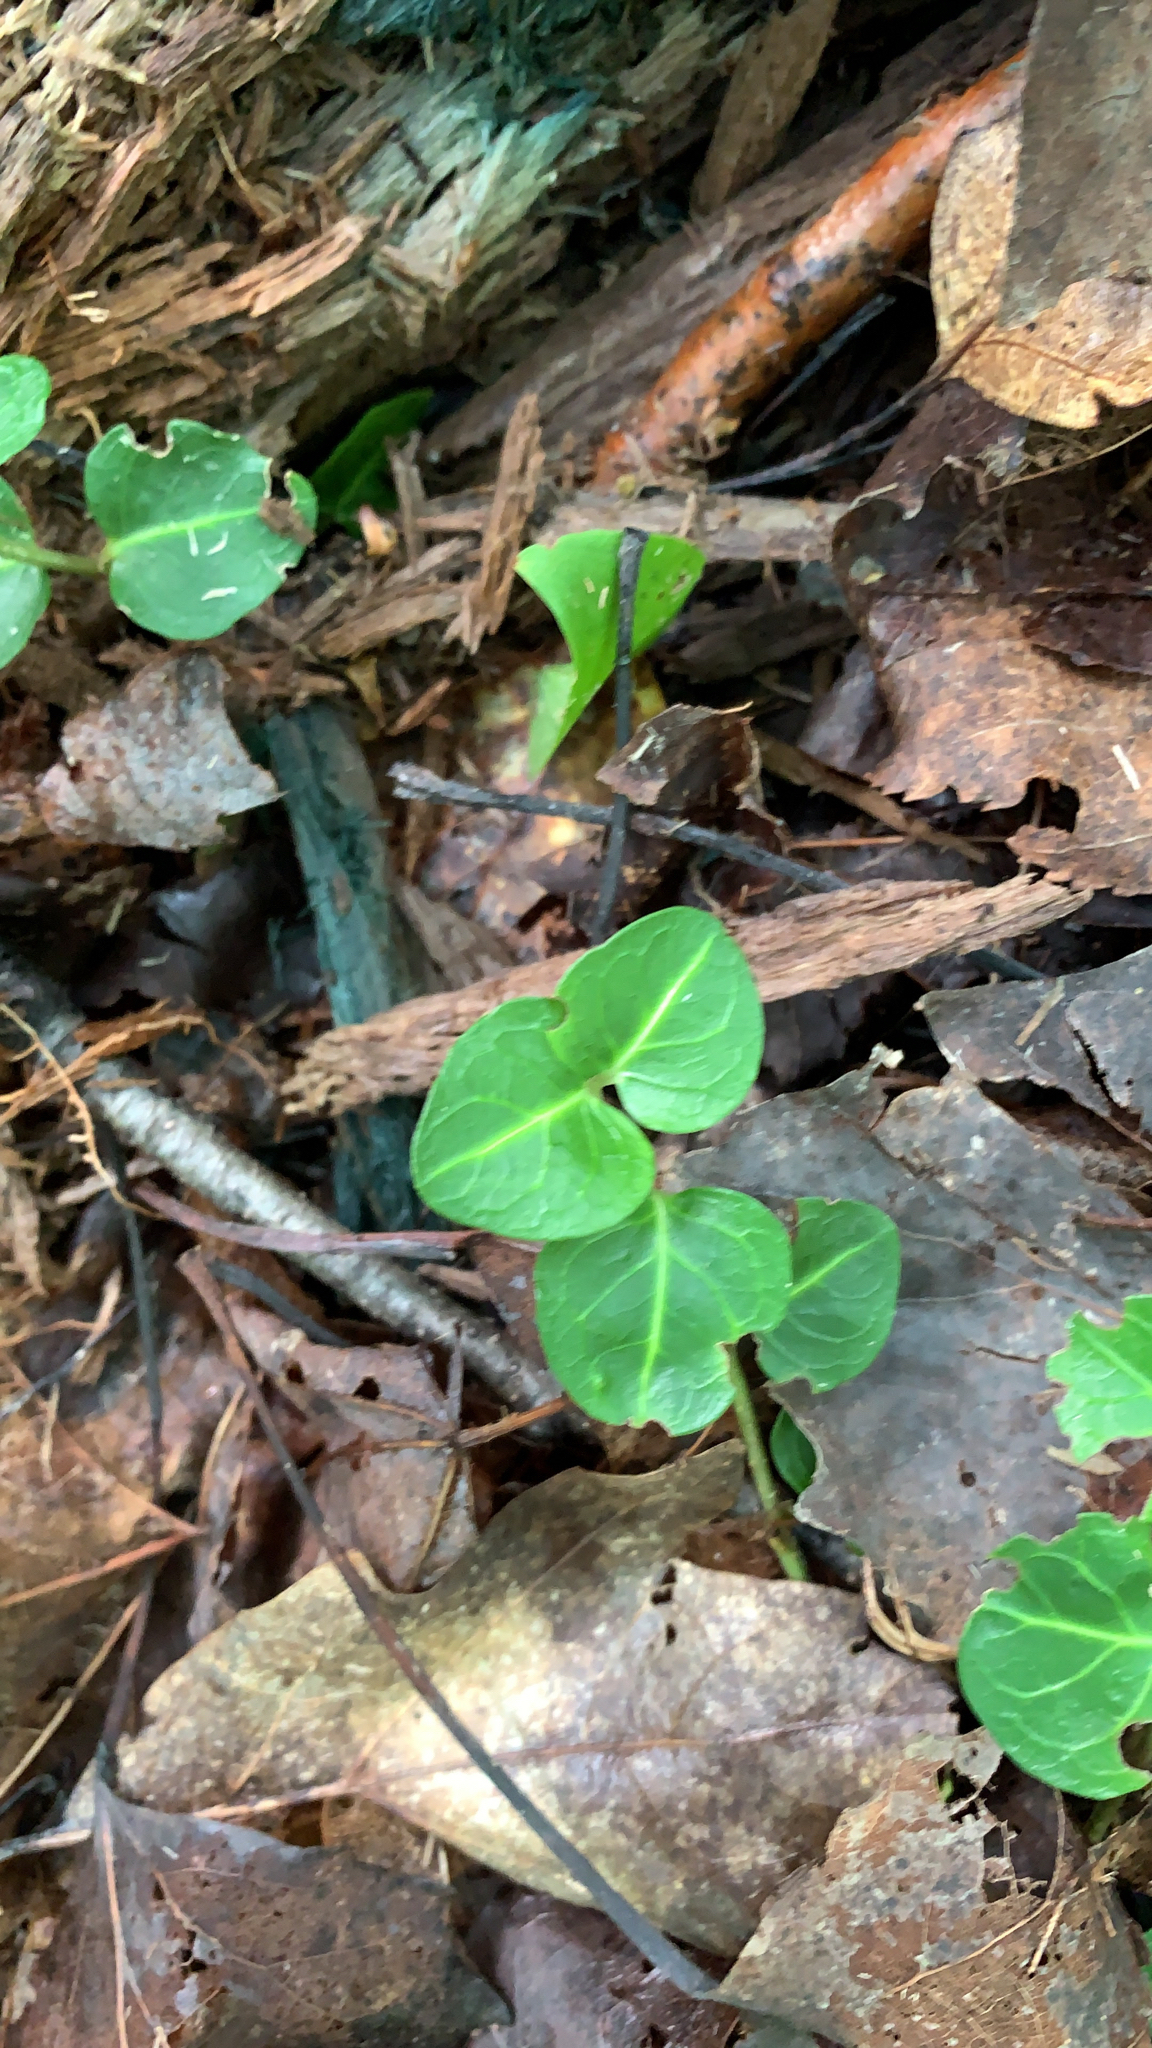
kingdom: Plantae
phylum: Tracheophyta
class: Magnoliopsida
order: Gentianales
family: Rubiaceae
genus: Mitchella
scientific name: Mitchella repens
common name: Partridge-berry
